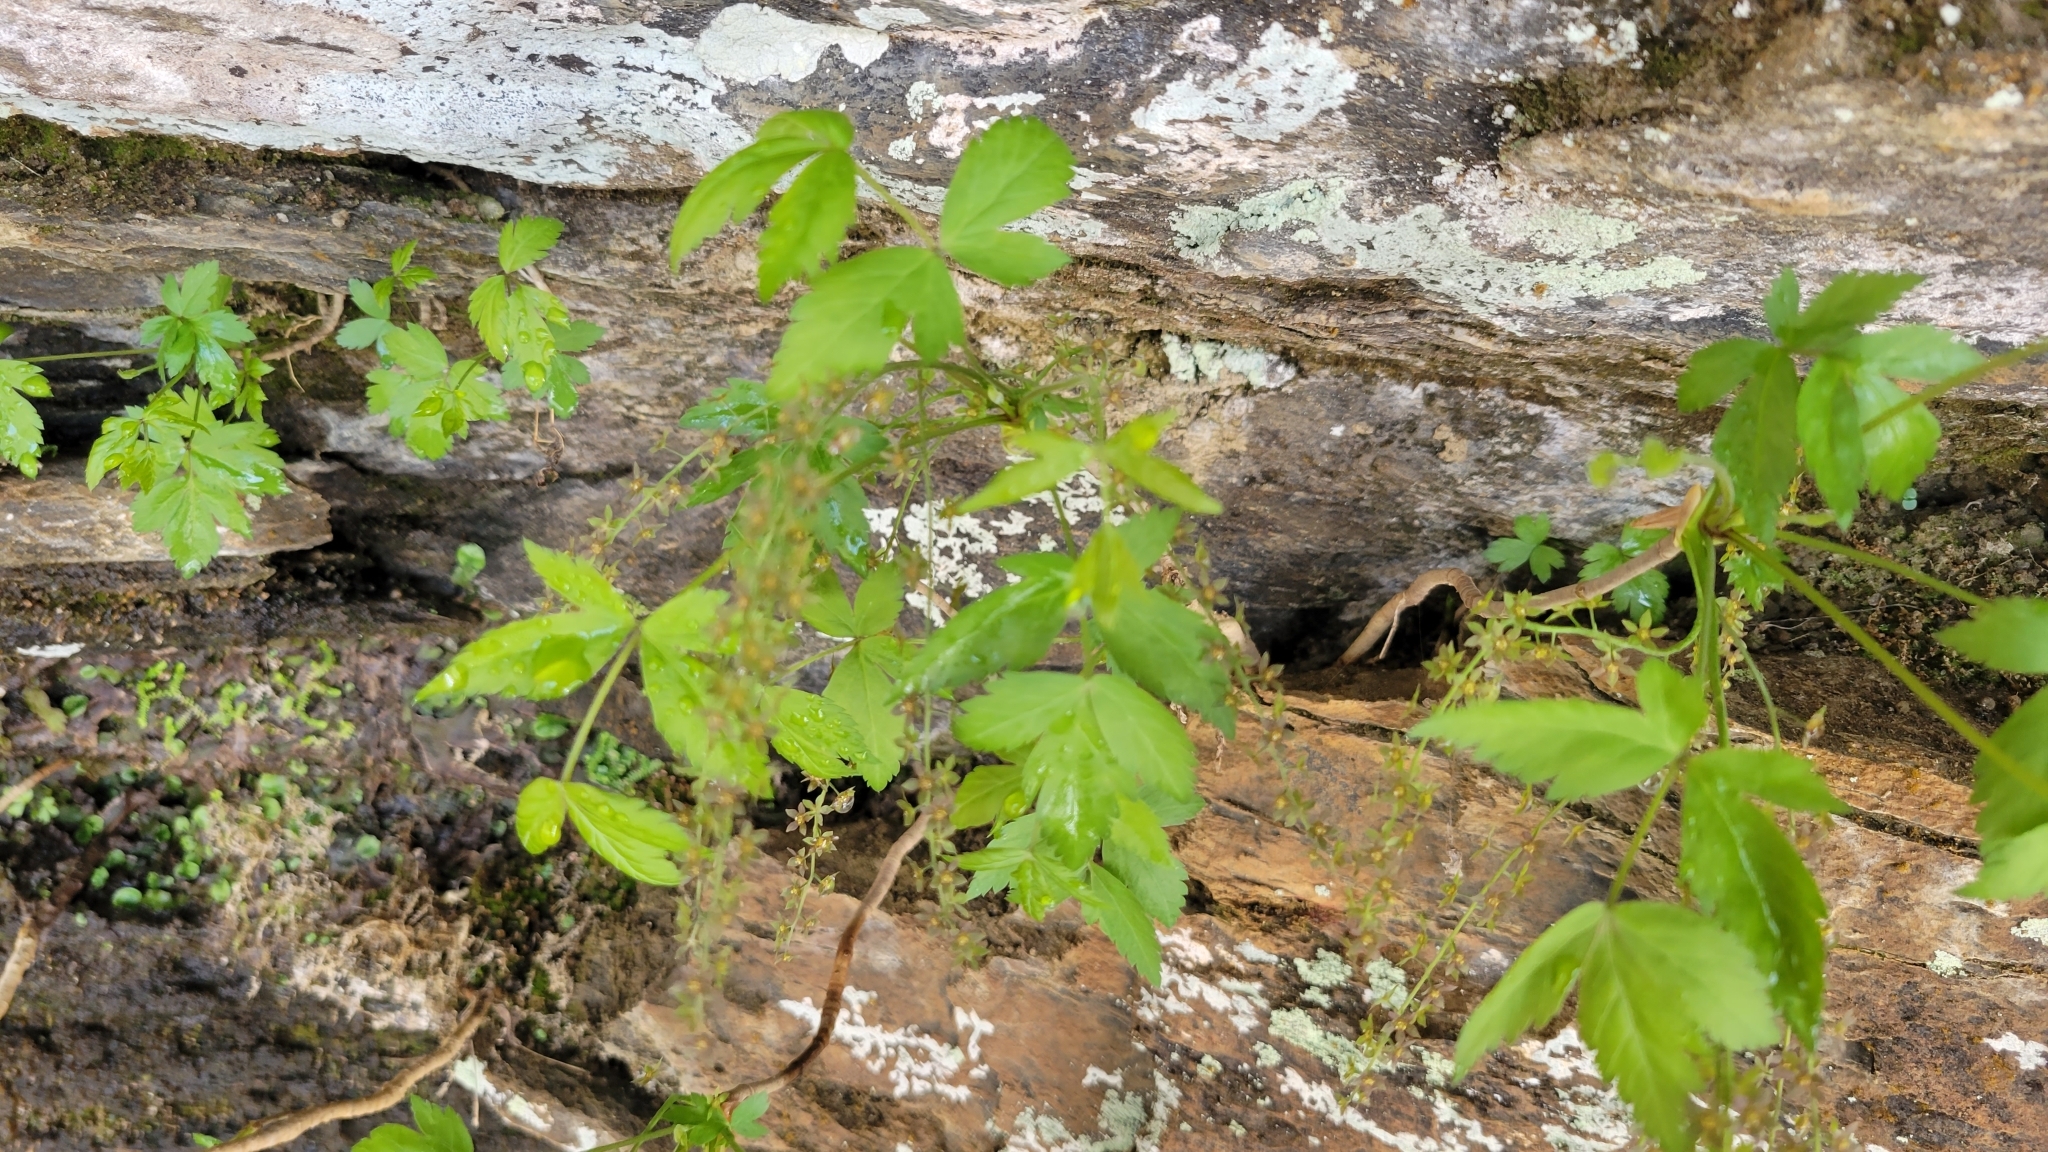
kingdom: Plantae
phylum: Tracheophyta
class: Magnoliopsida
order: Ranunculales
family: Ranunculaceae
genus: Xanthorhiza
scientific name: Xanthorhiza simplicissima
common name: Yellowroot
